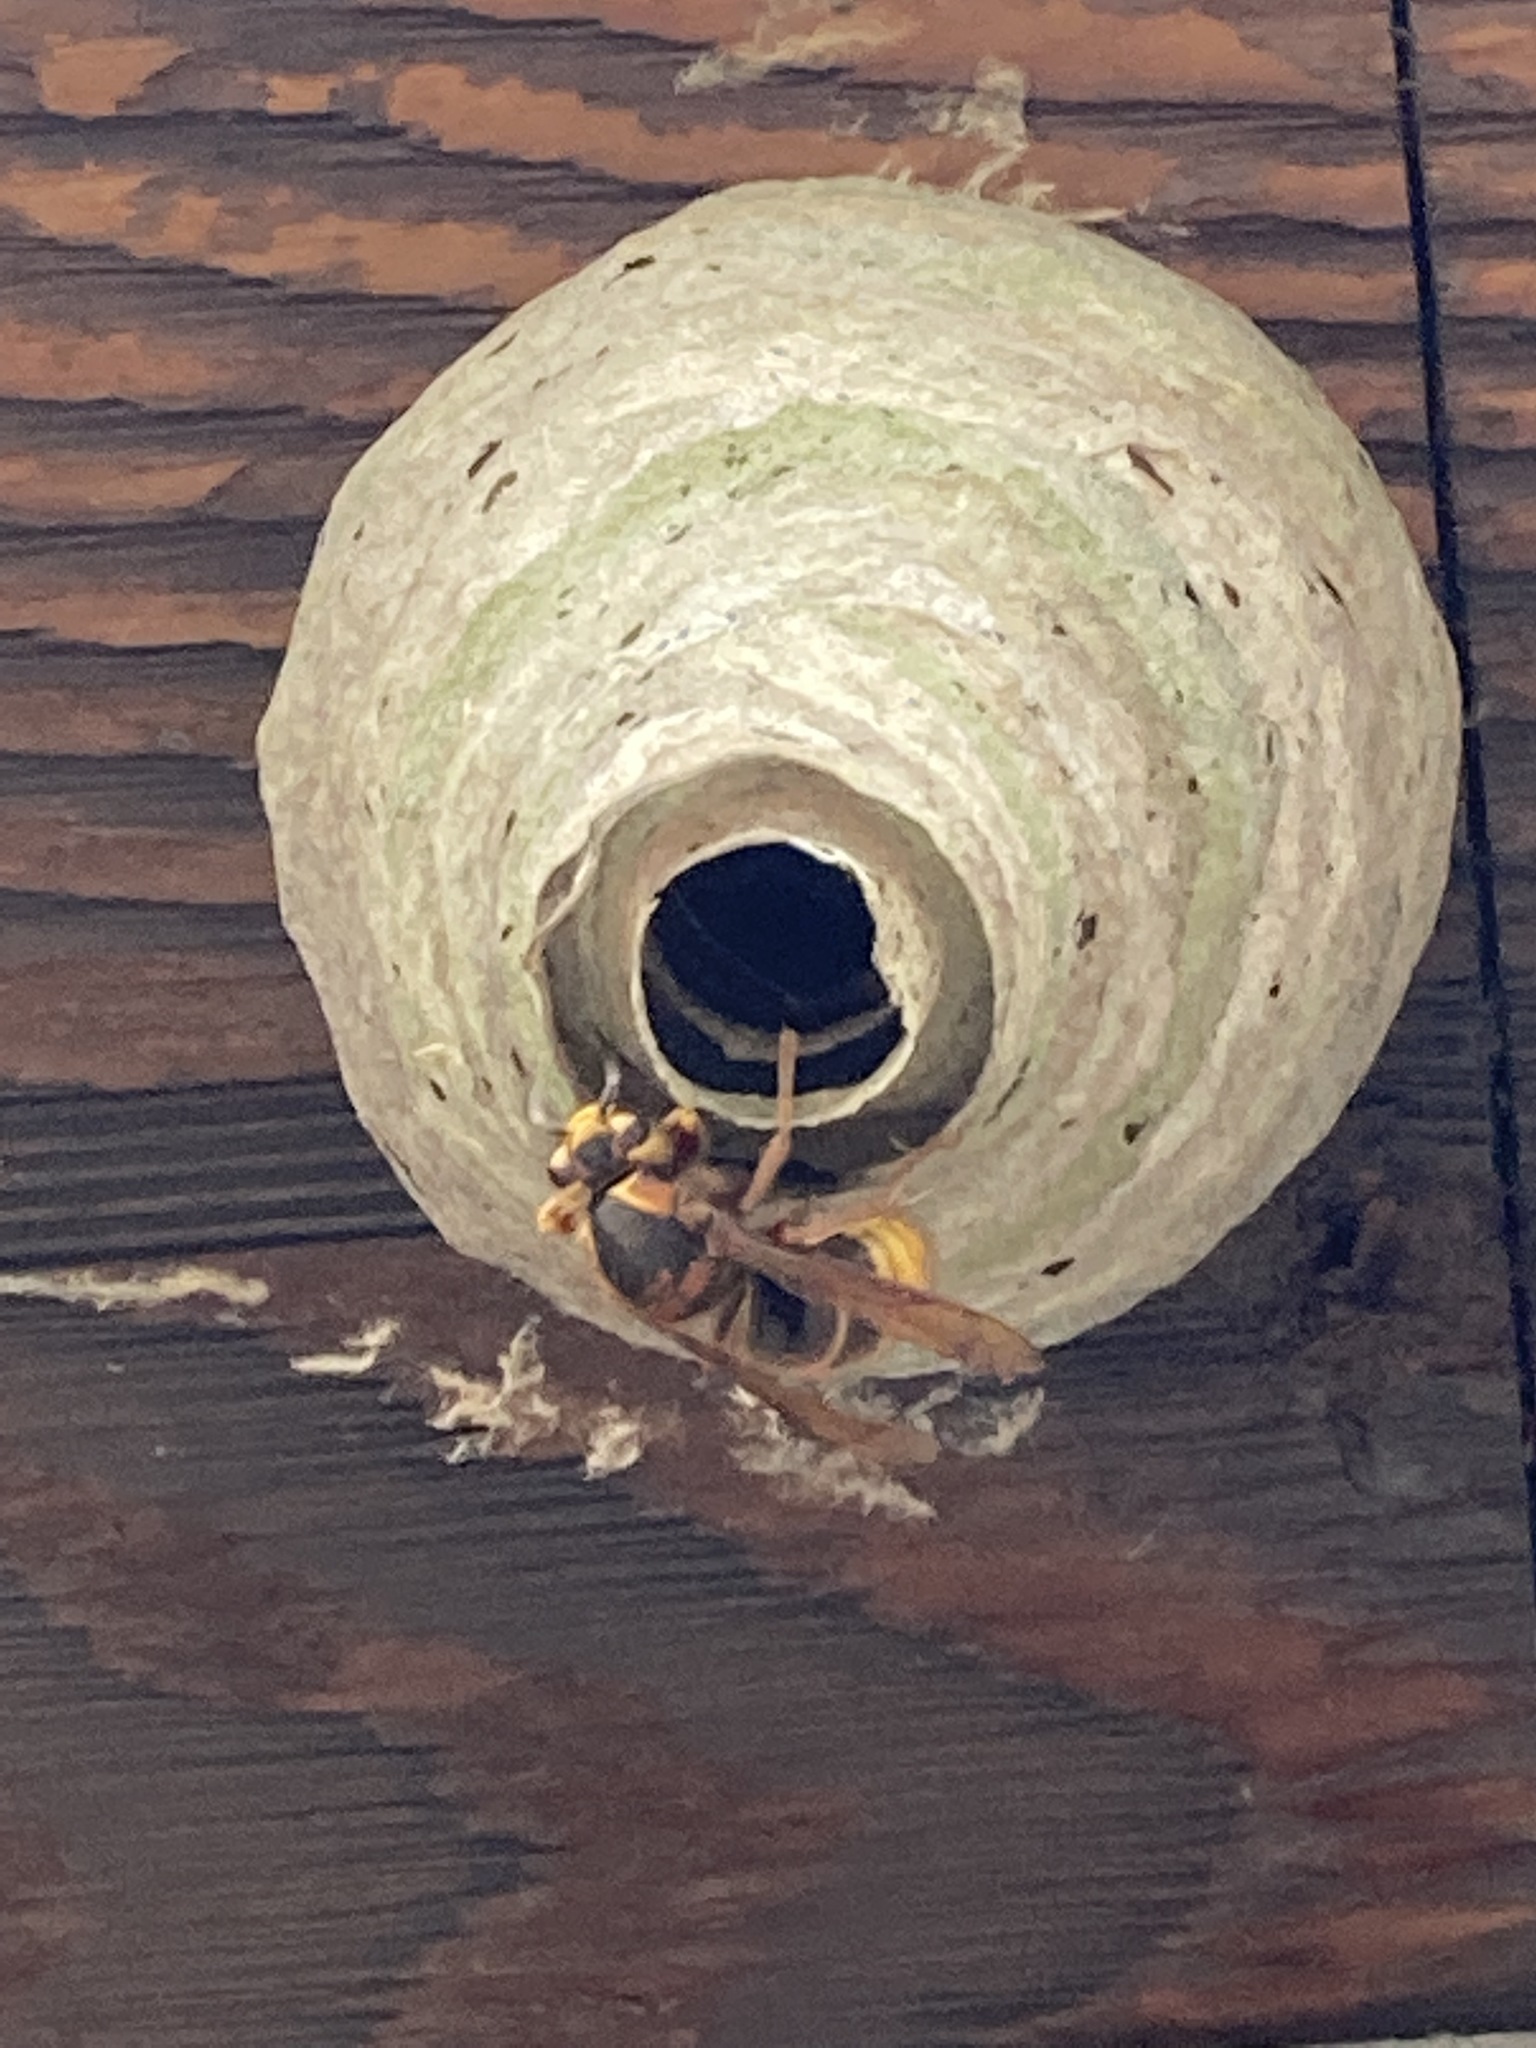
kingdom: Animalia
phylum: Arthropoda
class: Insecta
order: Hymenoptera
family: Vespidae
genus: Dolichovespula
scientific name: Dolichovespula media
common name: Median wasp
